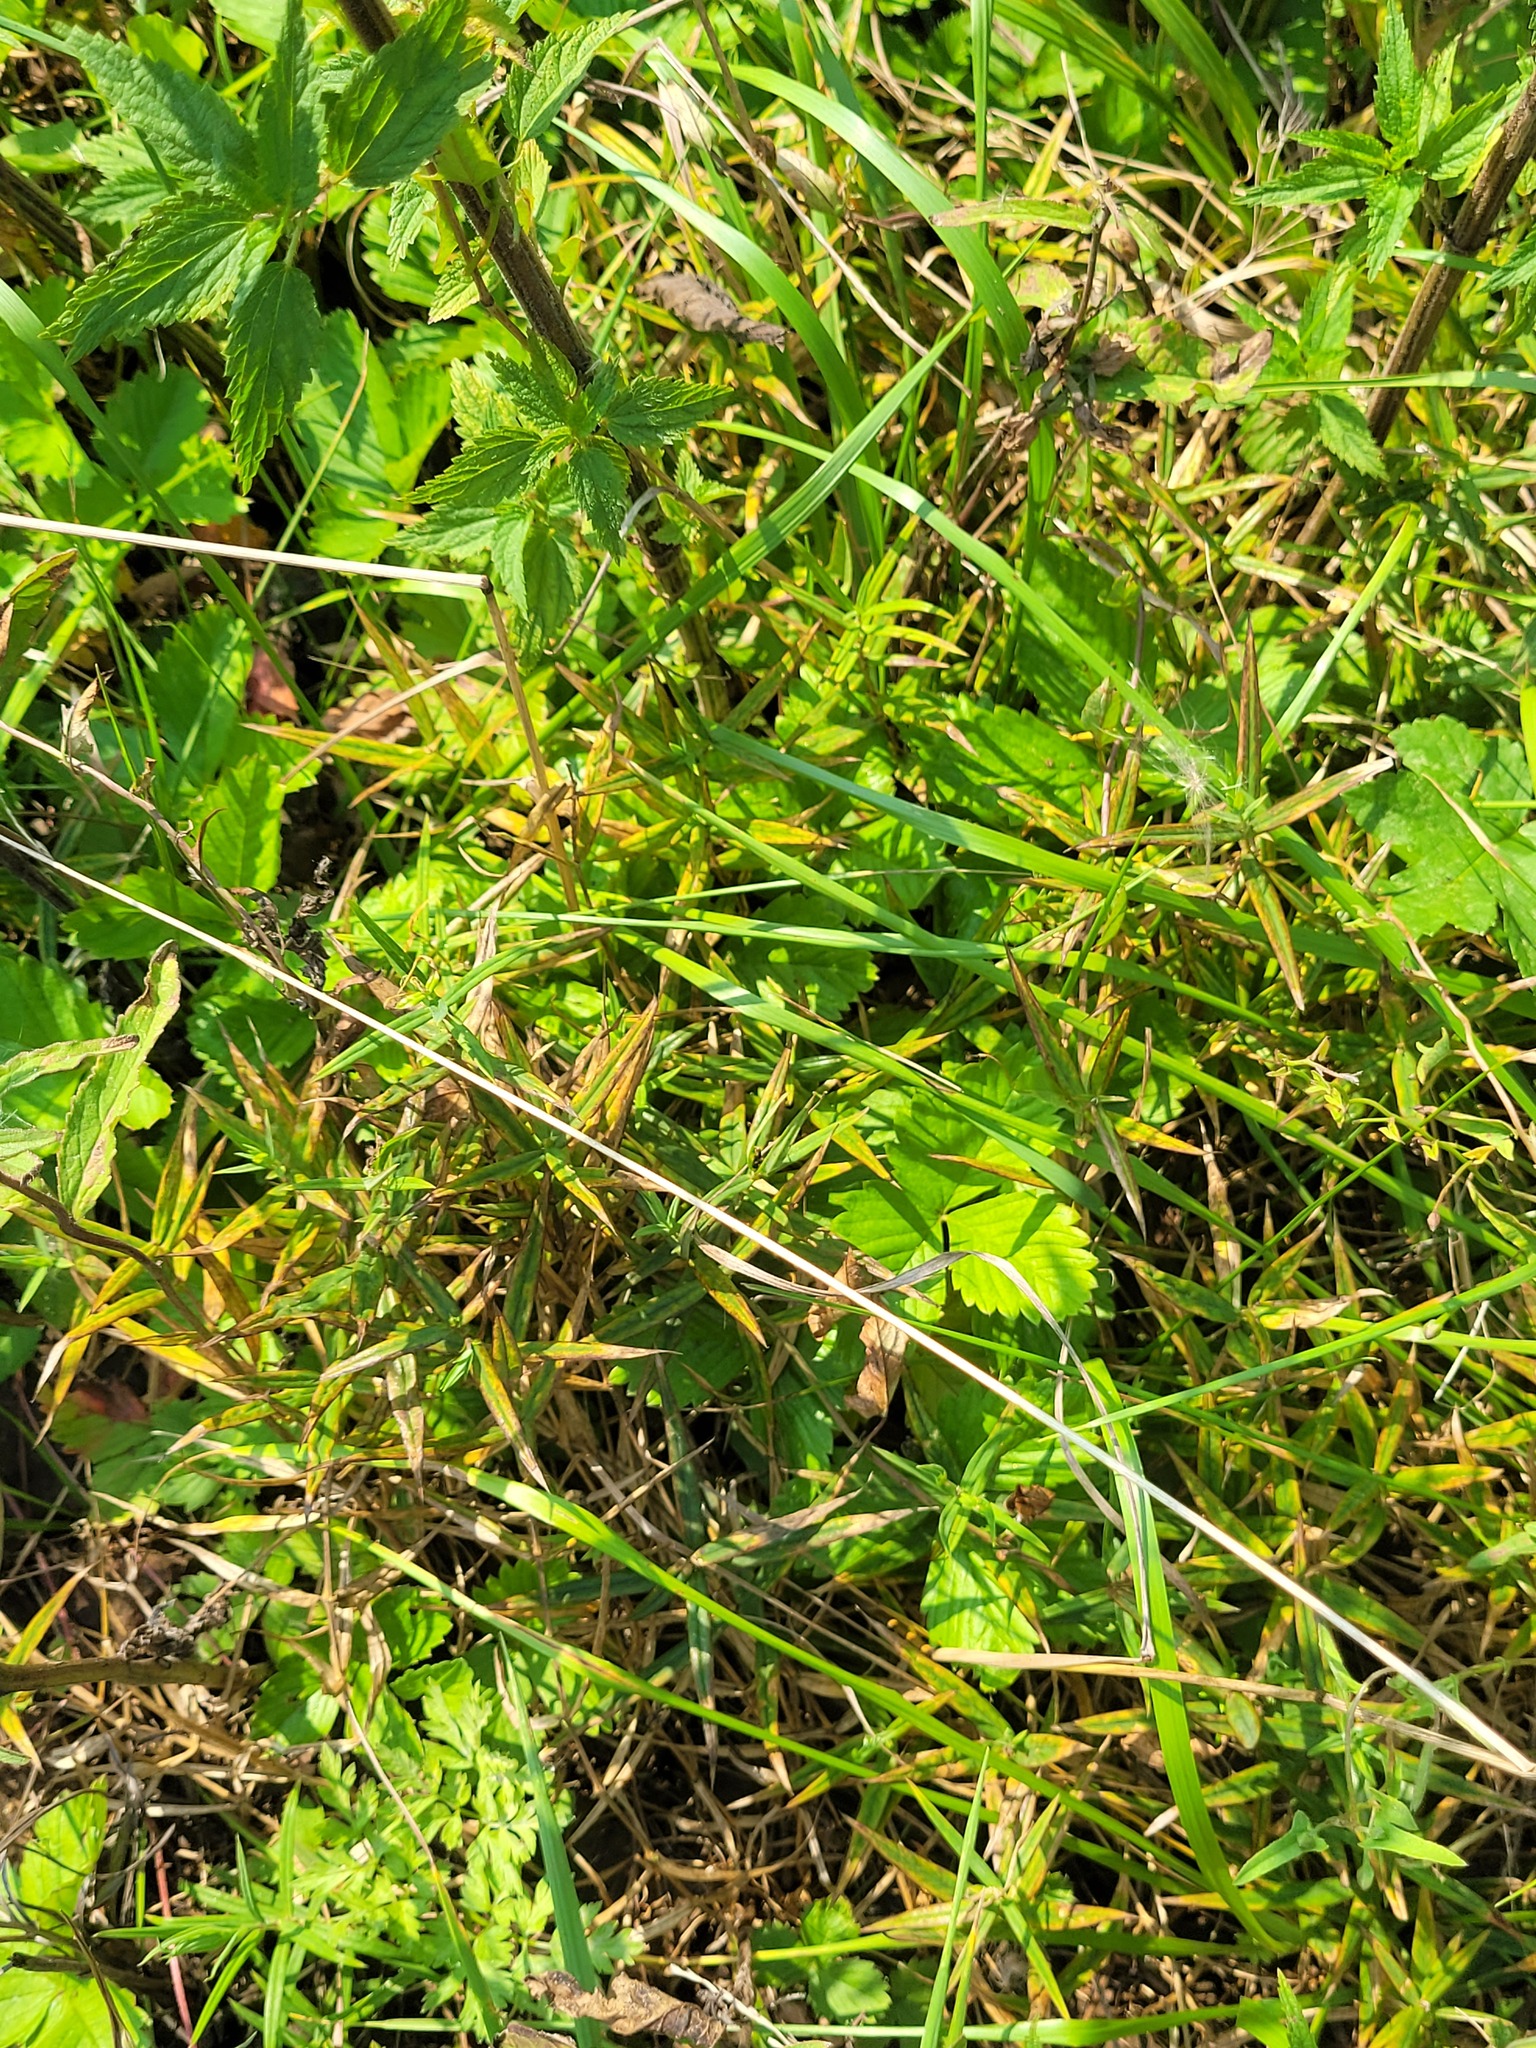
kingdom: Plantae
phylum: Tracheophyta
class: Magnoliopsida
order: Caryophyllales
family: Caryophyllaceae
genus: Rabelera
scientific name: Rabelera holostea
